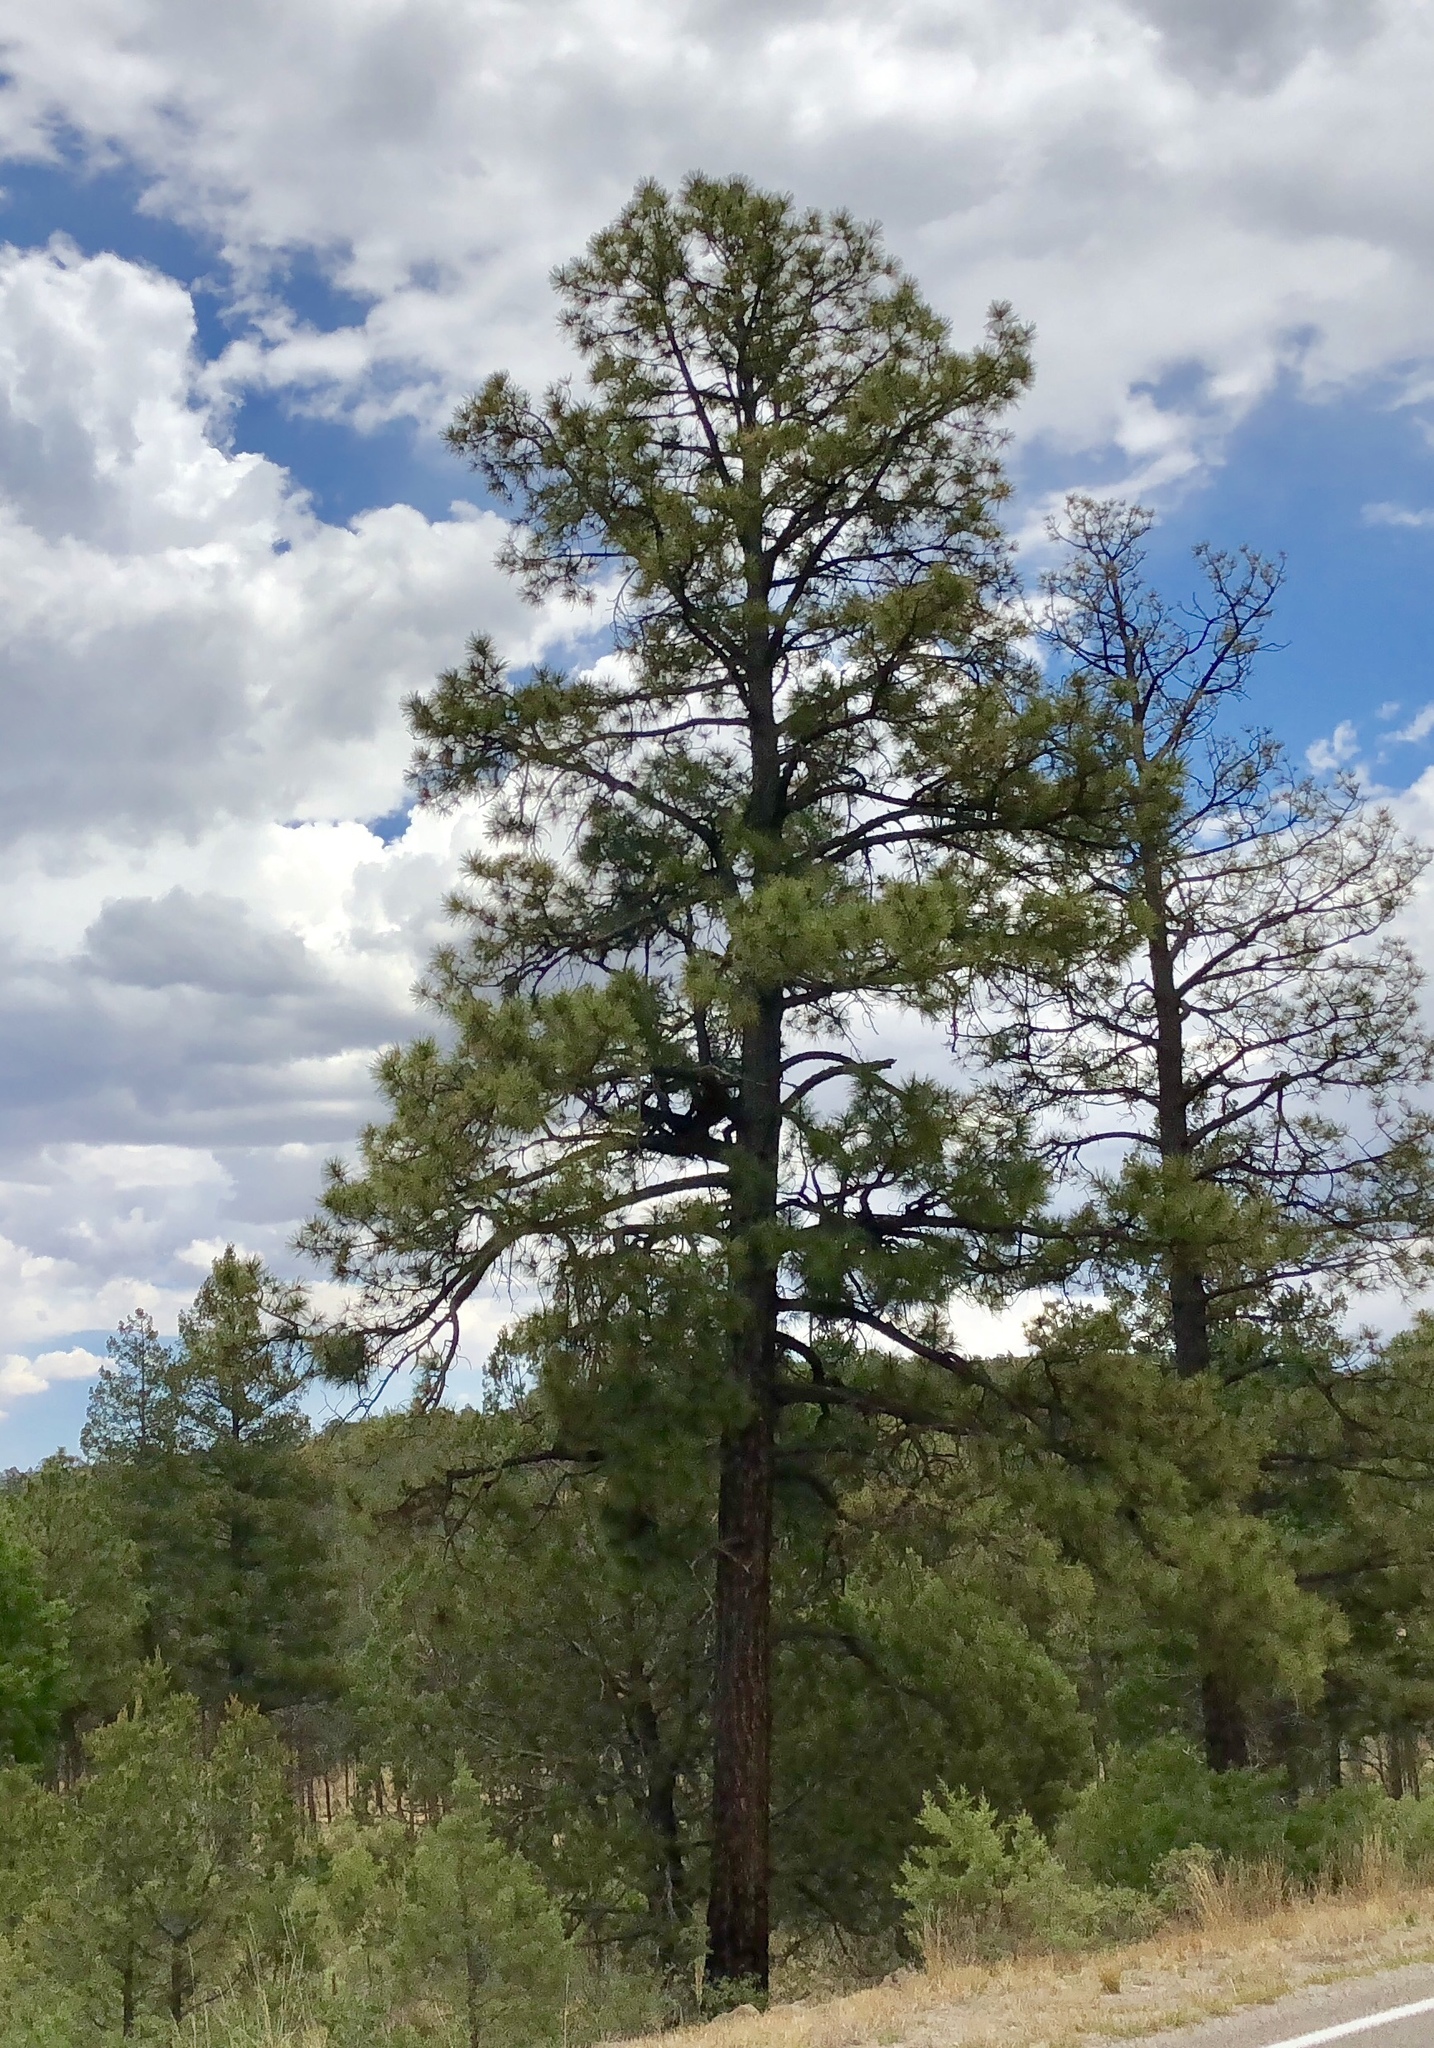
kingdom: Plantae
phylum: Tracheophyta
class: Pinopsida
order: Pinales
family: Pinaceae
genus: Pinus
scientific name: Pinus ponderosa
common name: Western yellow-pine
